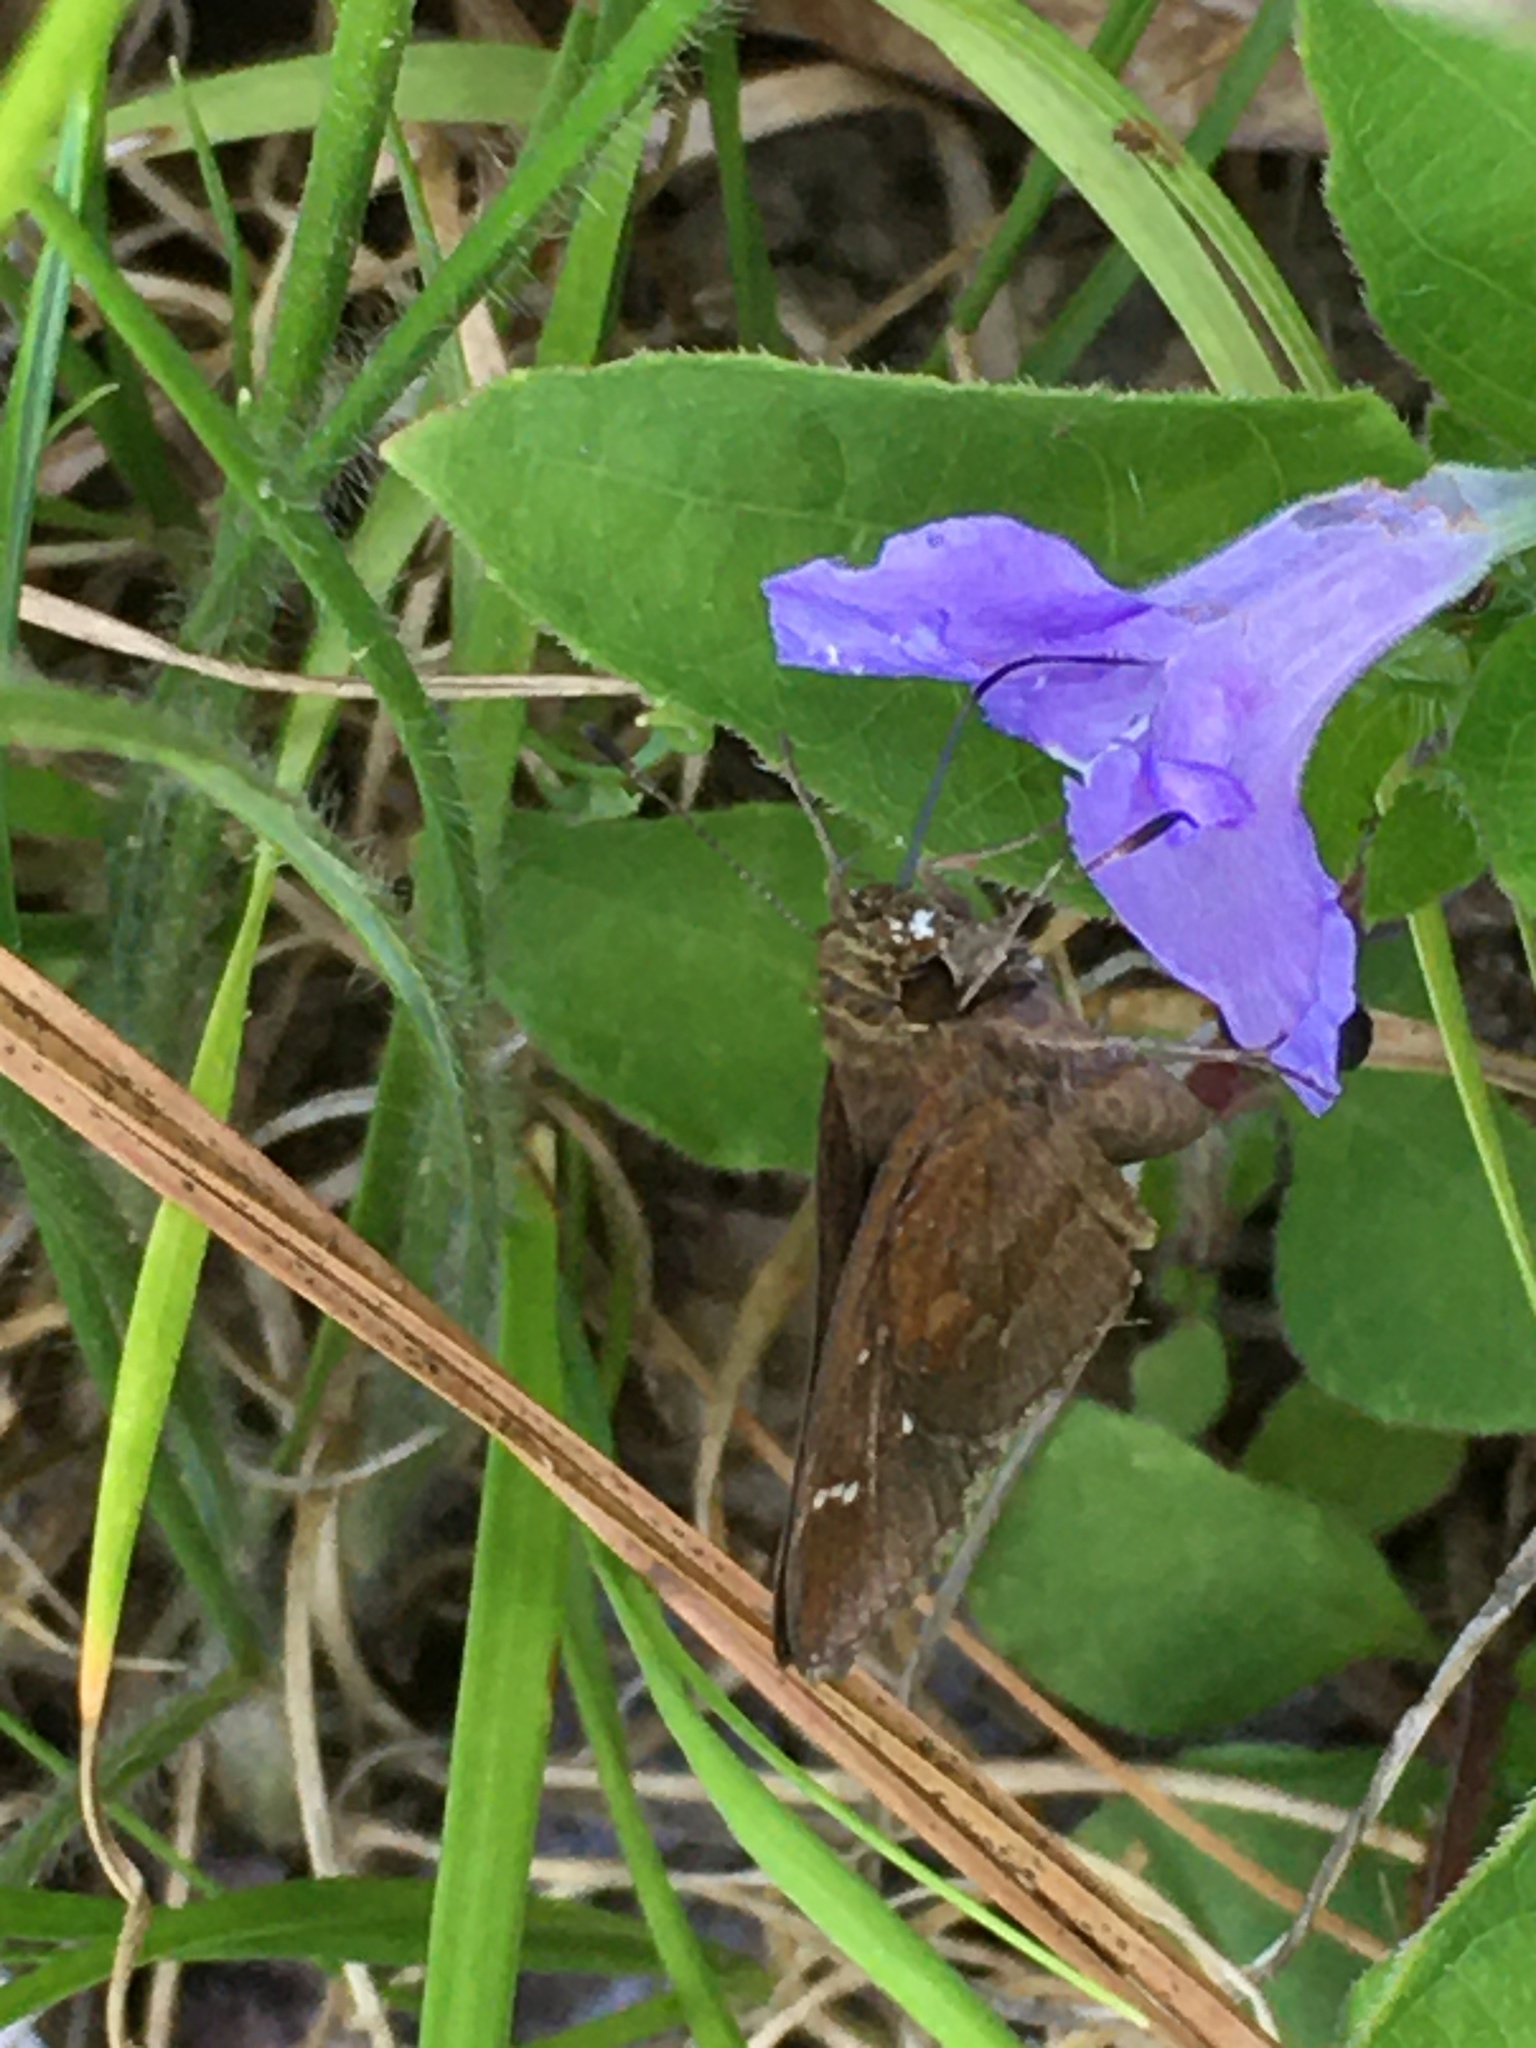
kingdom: Animalia
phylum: Arthropoda
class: Insecta
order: Lepidoptera
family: Hesperiidae
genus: Lerema
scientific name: Lerema accius
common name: Clouded skipper
